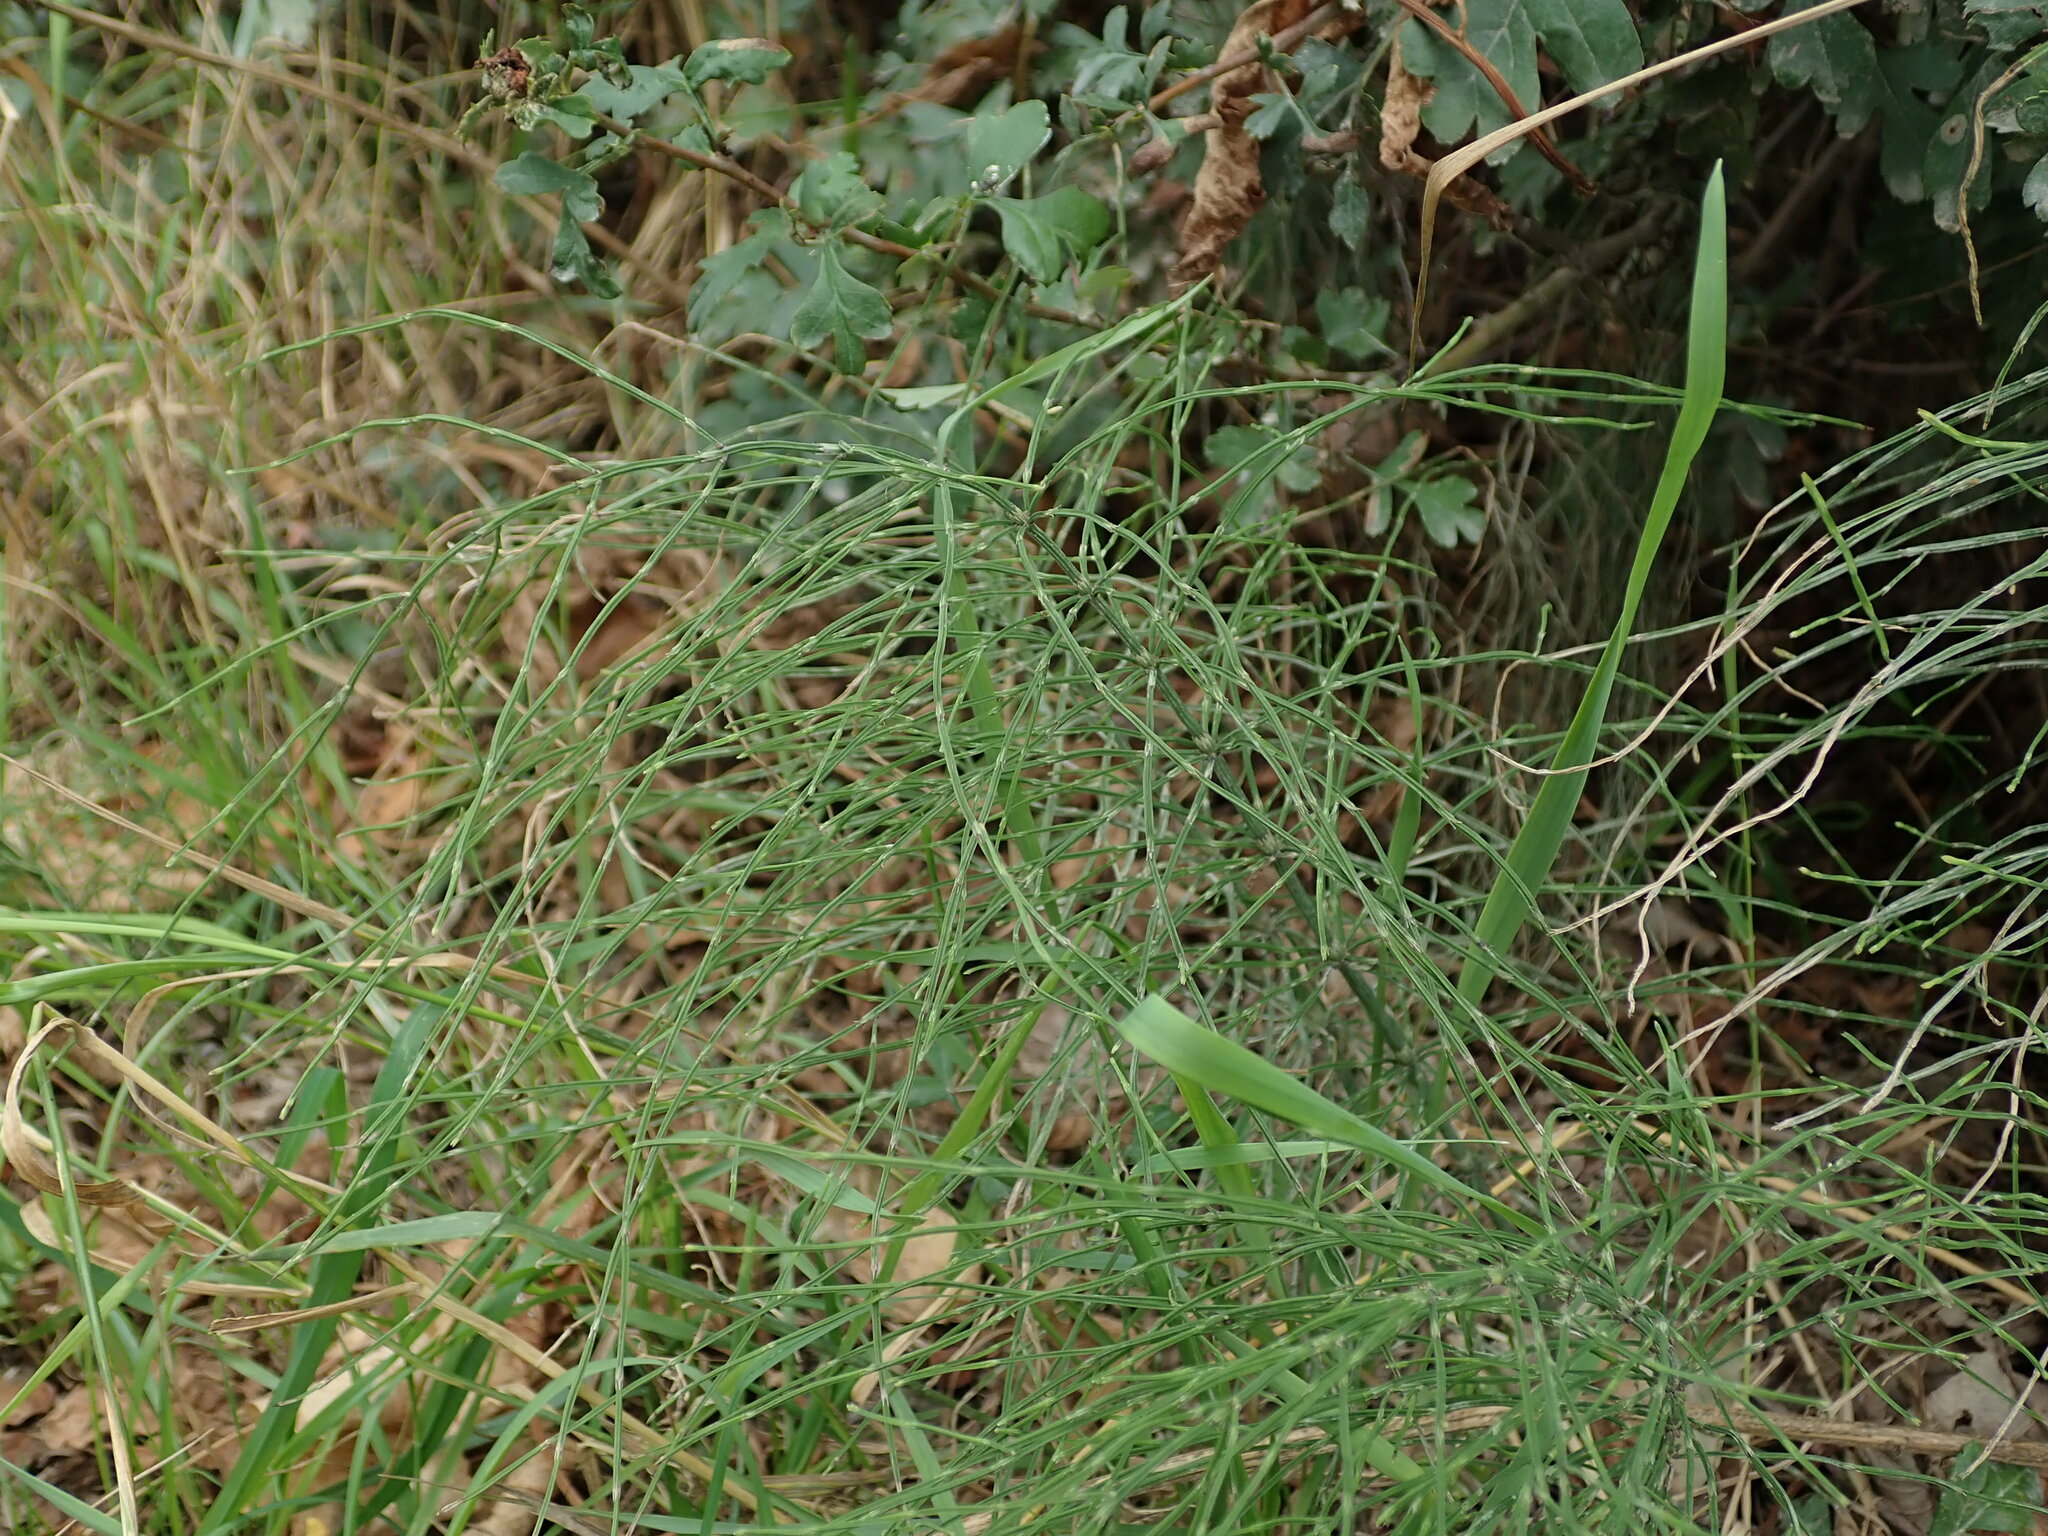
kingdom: Plantae
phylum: Tracheophyta
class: Polypodiopsida
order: Equisetales
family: Equisetaceae
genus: Equisetum
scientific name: Equisetum arvense
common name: Field horsetail
